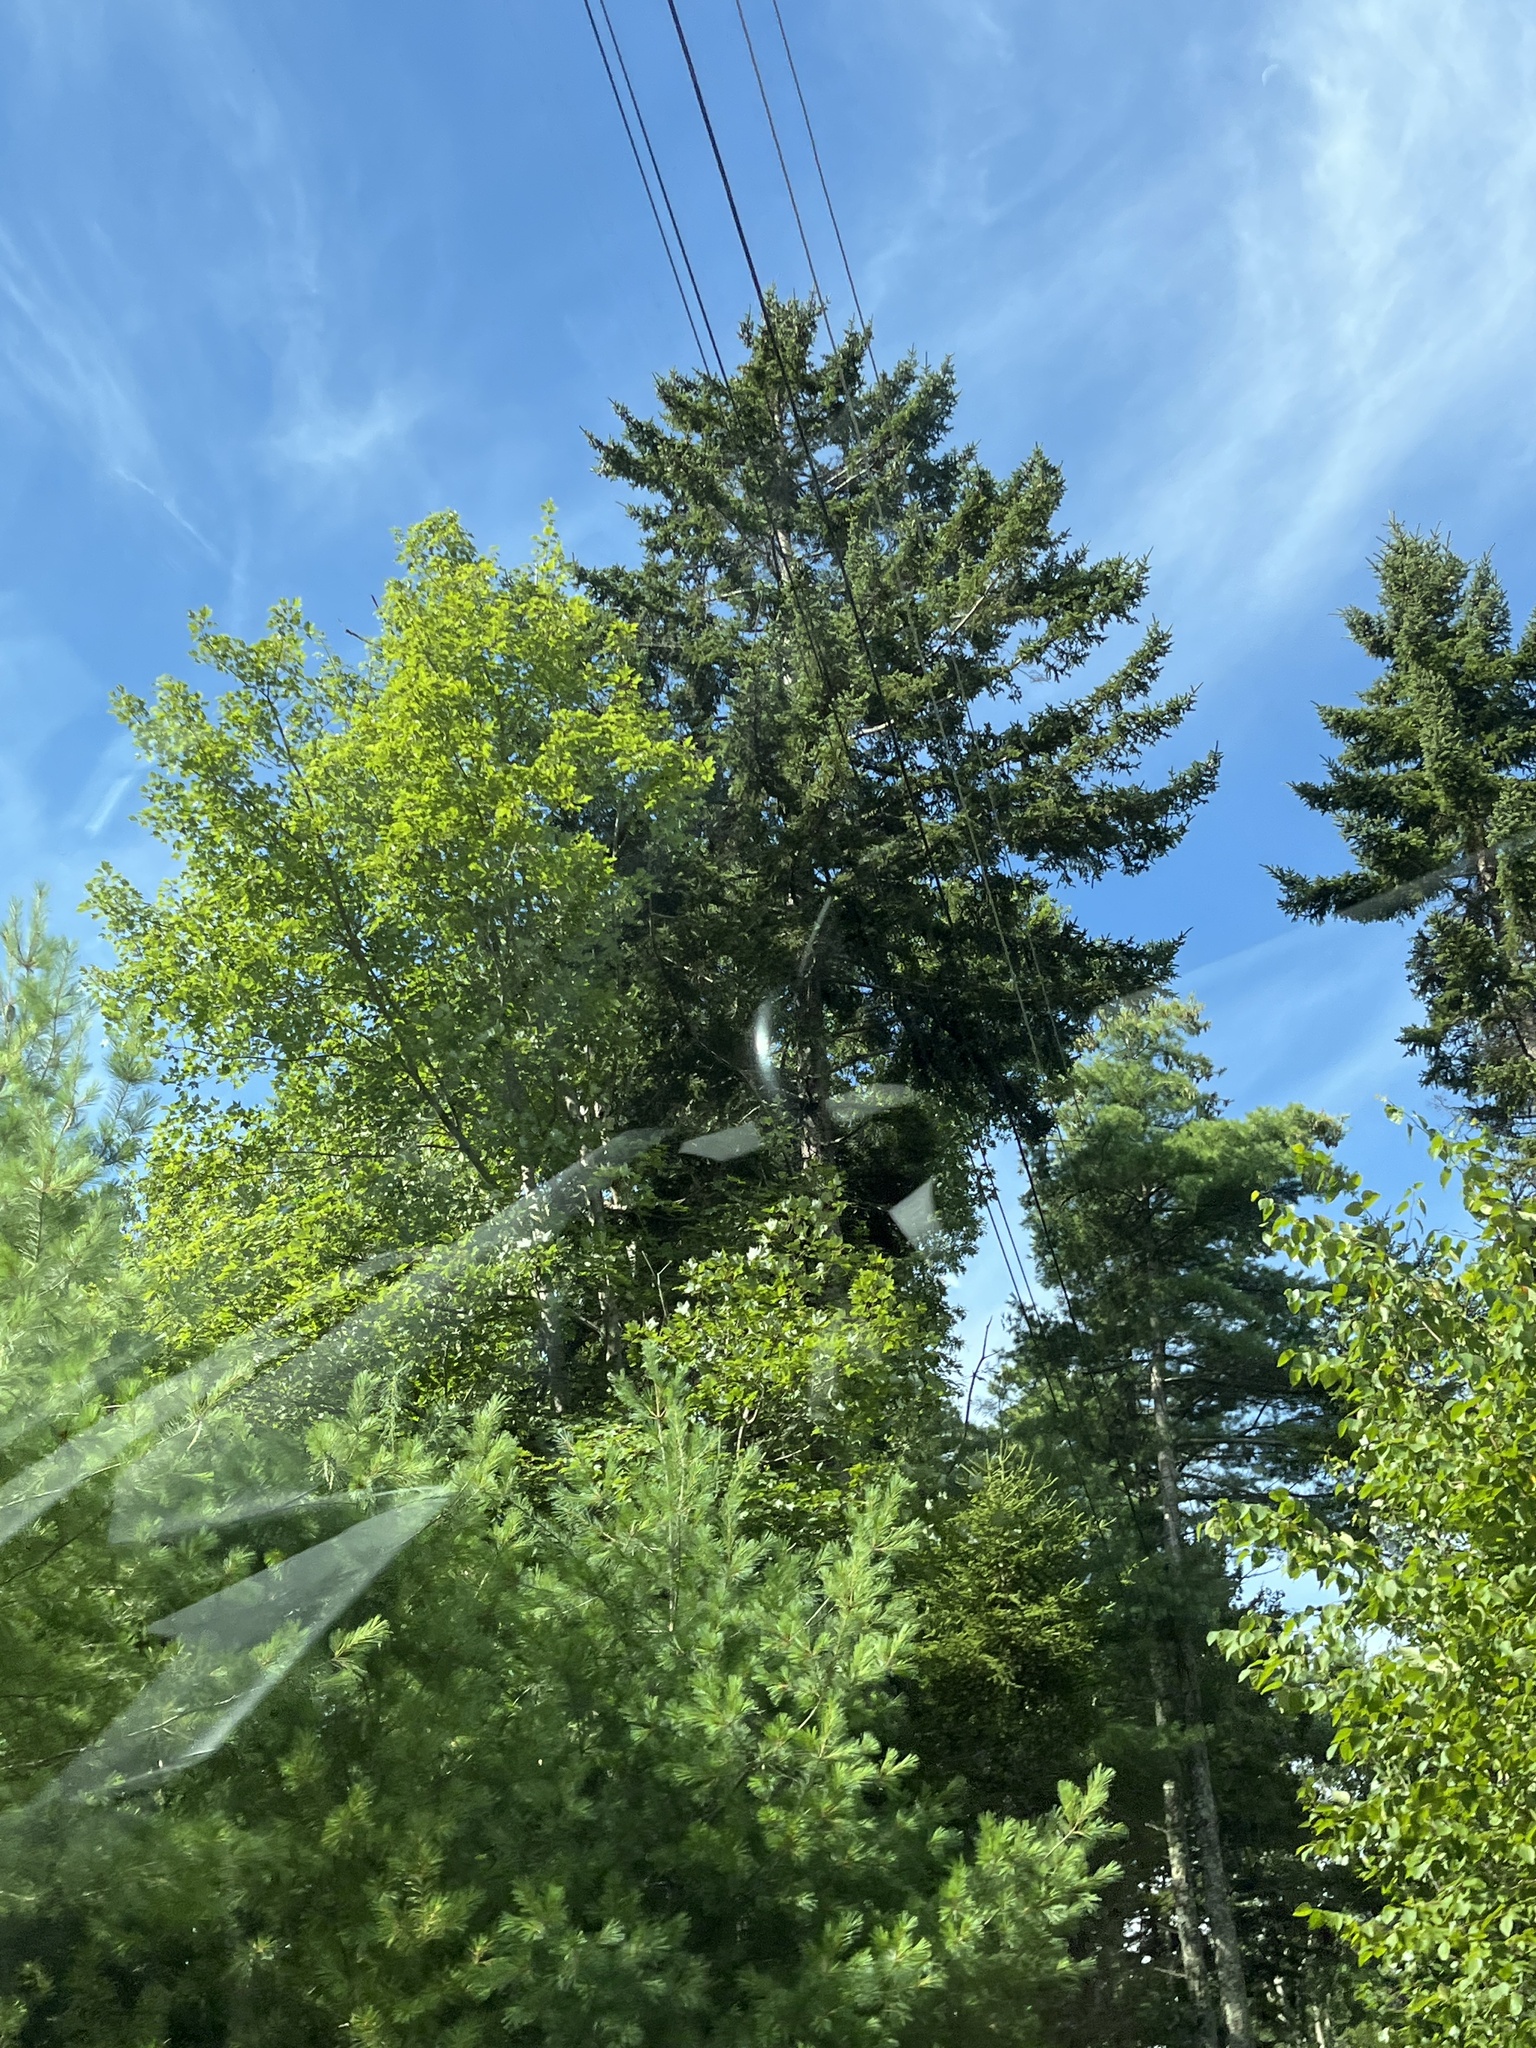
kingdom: Plantae
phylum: Tracheophyta
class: Pinopsida
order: Pinales
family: Pinaceae
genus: Pinus
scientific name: Pinus strobus
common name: Weymouth pine
